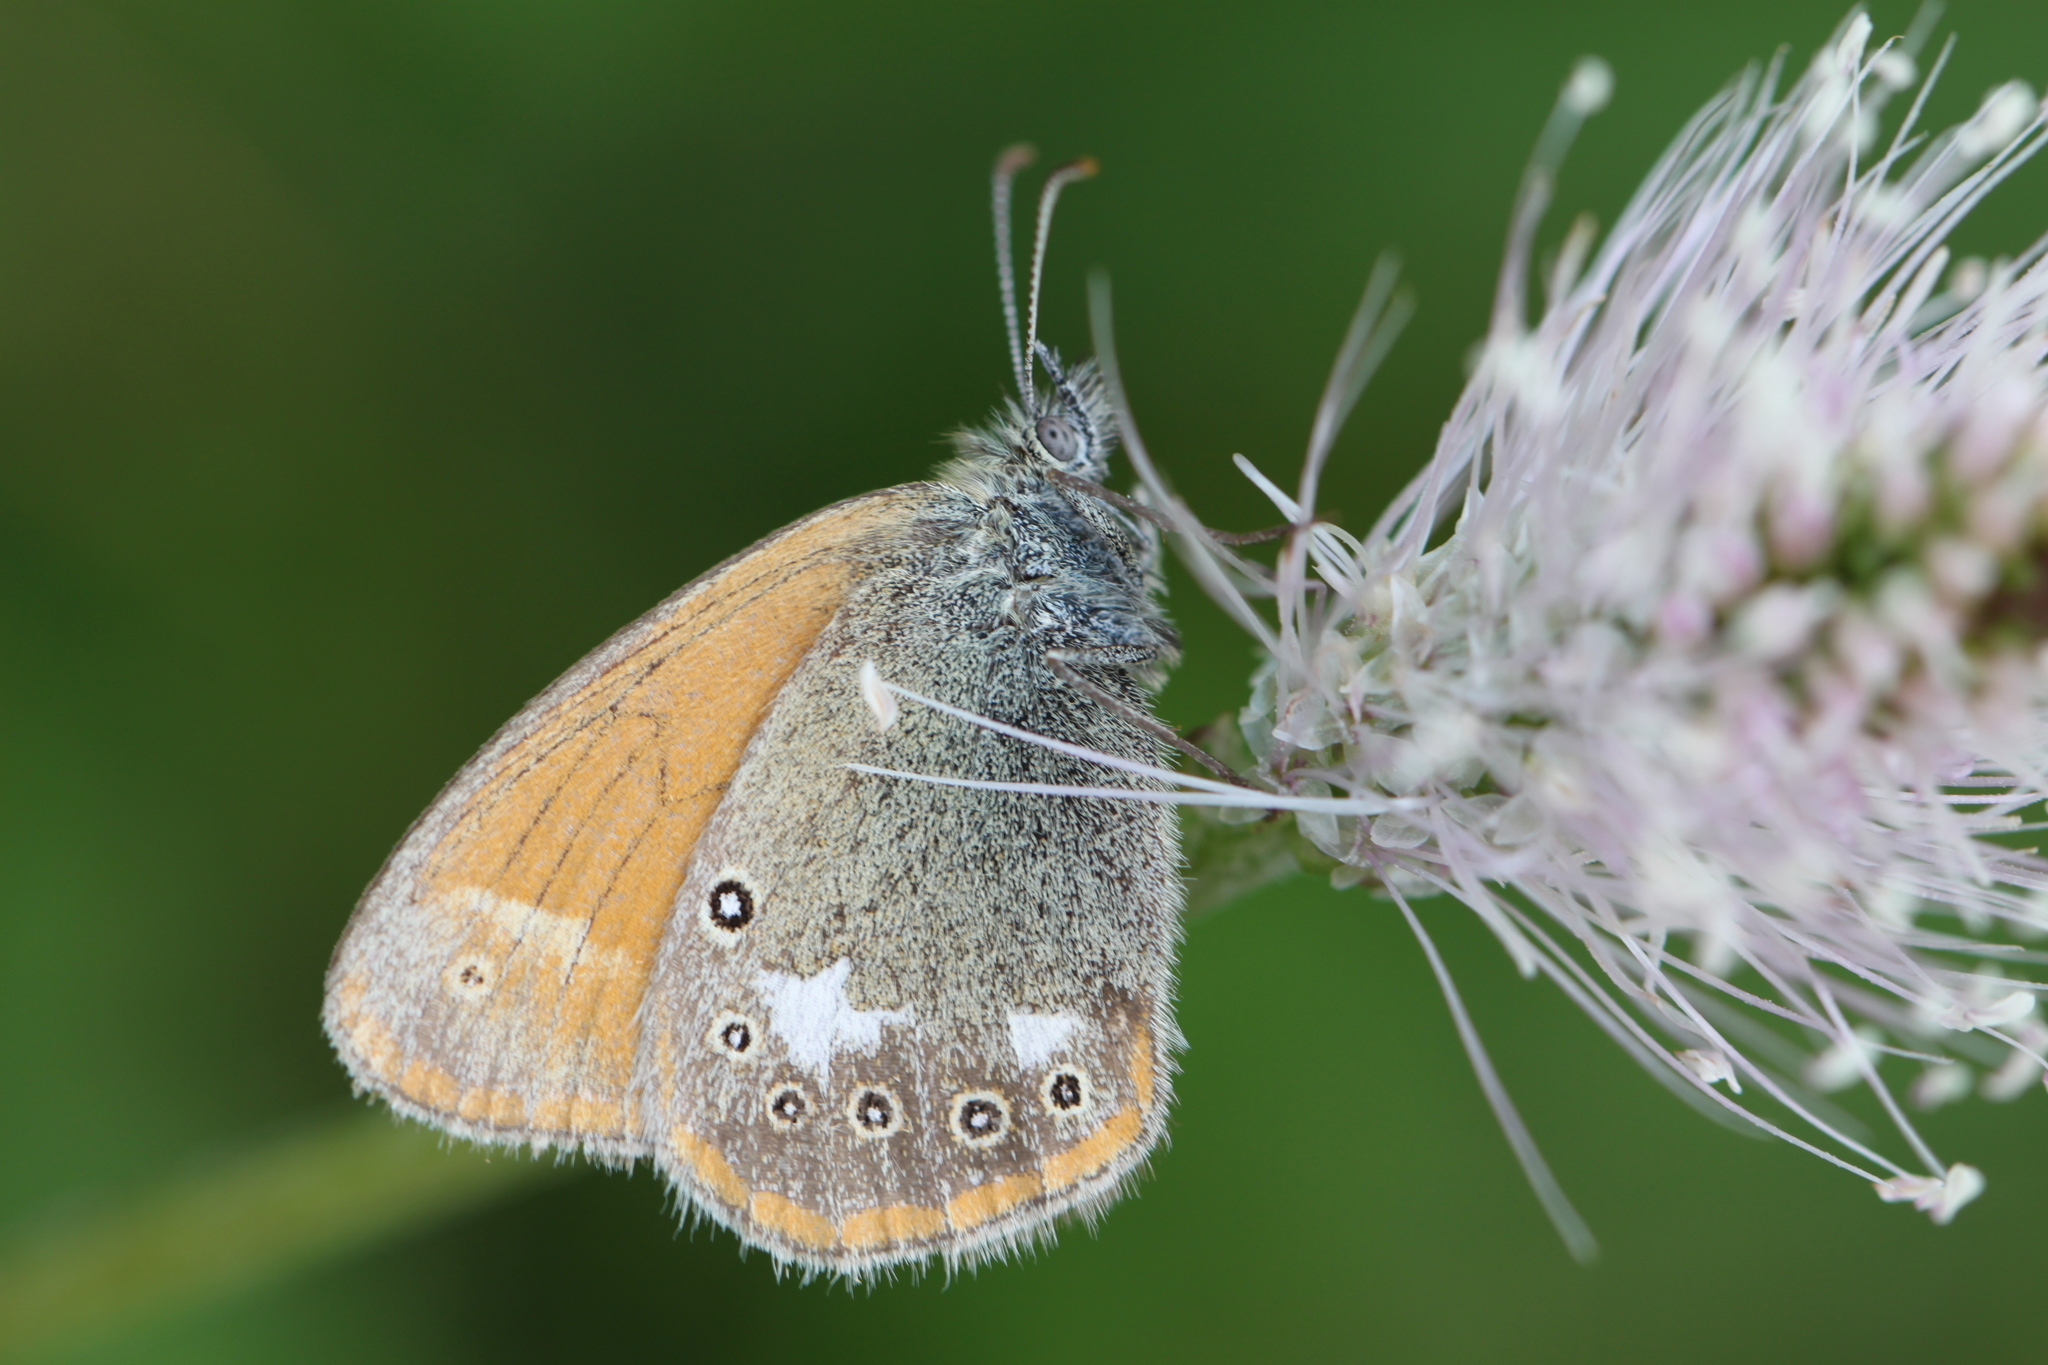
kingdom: Animalia
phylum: Arthropoda
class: Insecta
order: Lepidoptera
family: Nymphalidae
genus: Coenonympha
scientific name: Coenonympha iphis
